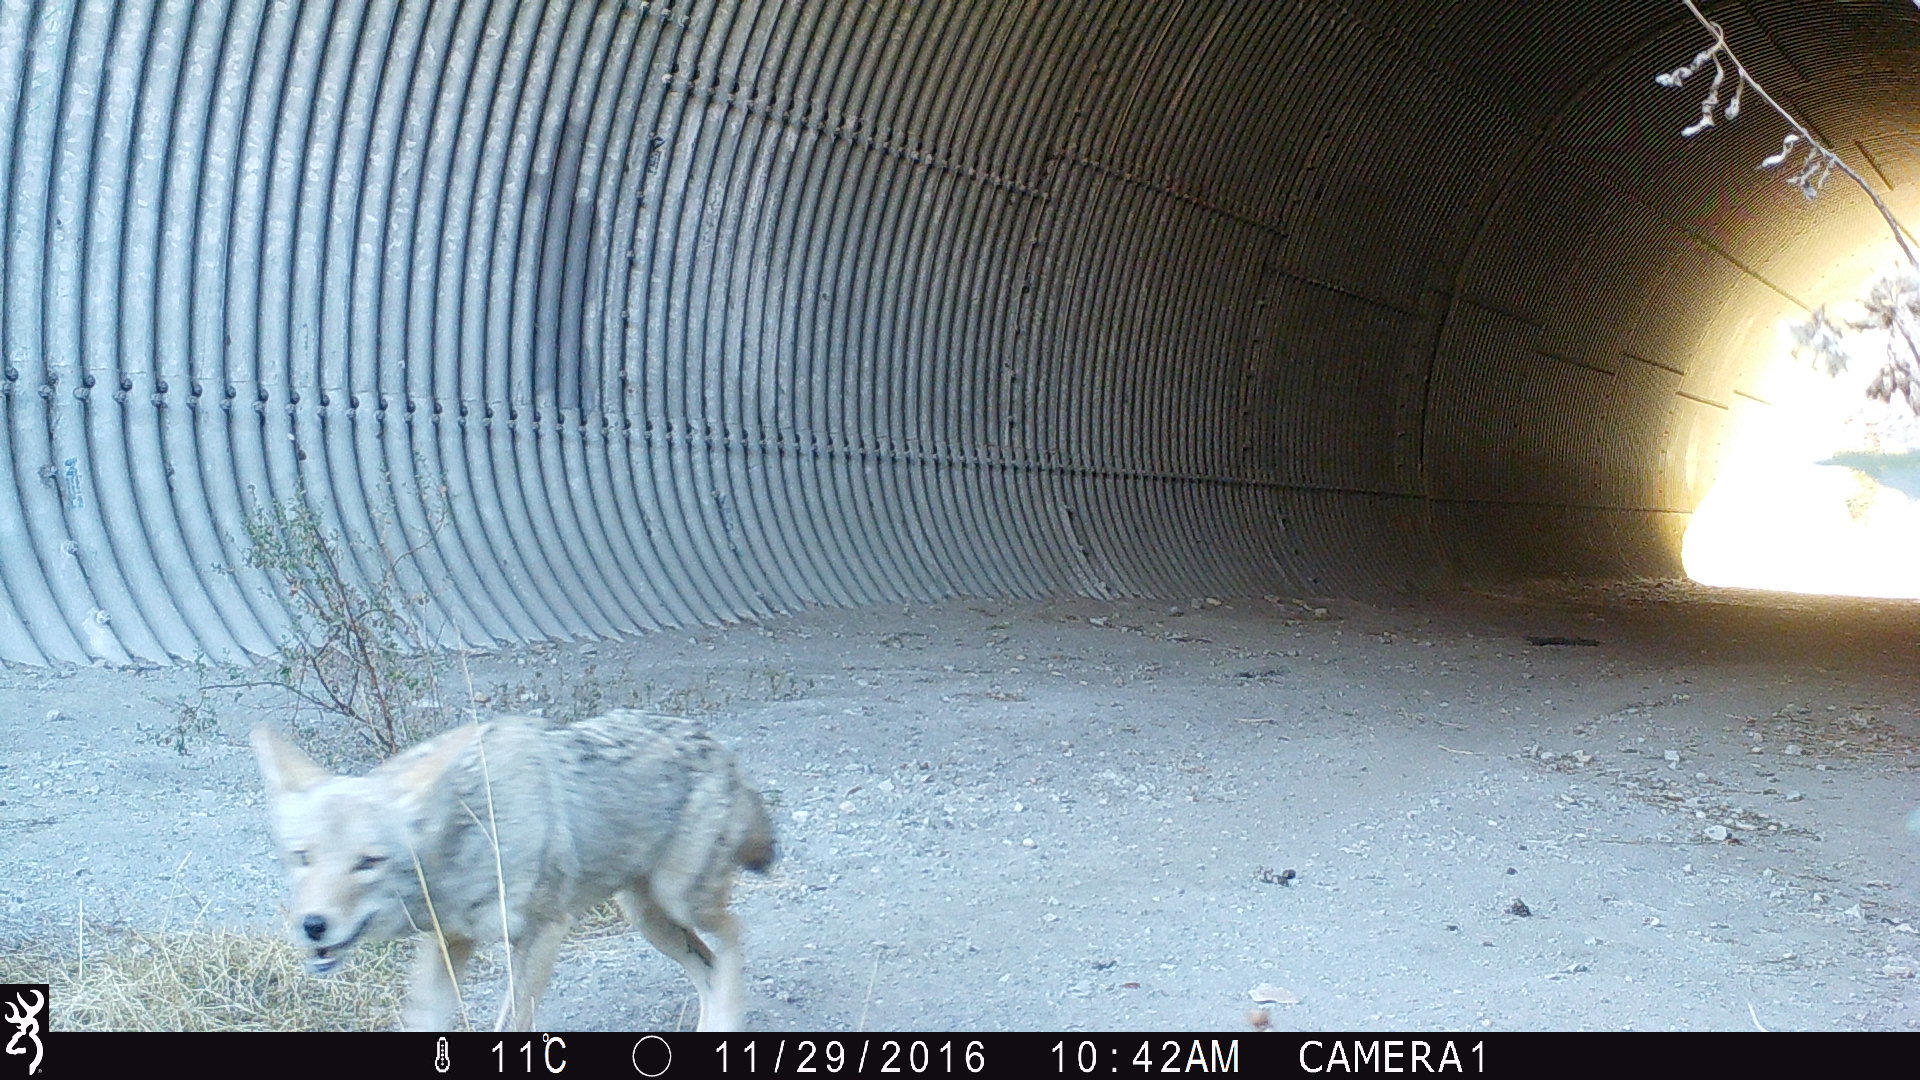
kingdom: Animalia
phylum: Chordata
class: Mammalia
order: Carnivora
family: Canidae
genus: Canis
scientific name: Canis latrans
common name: Coyote
